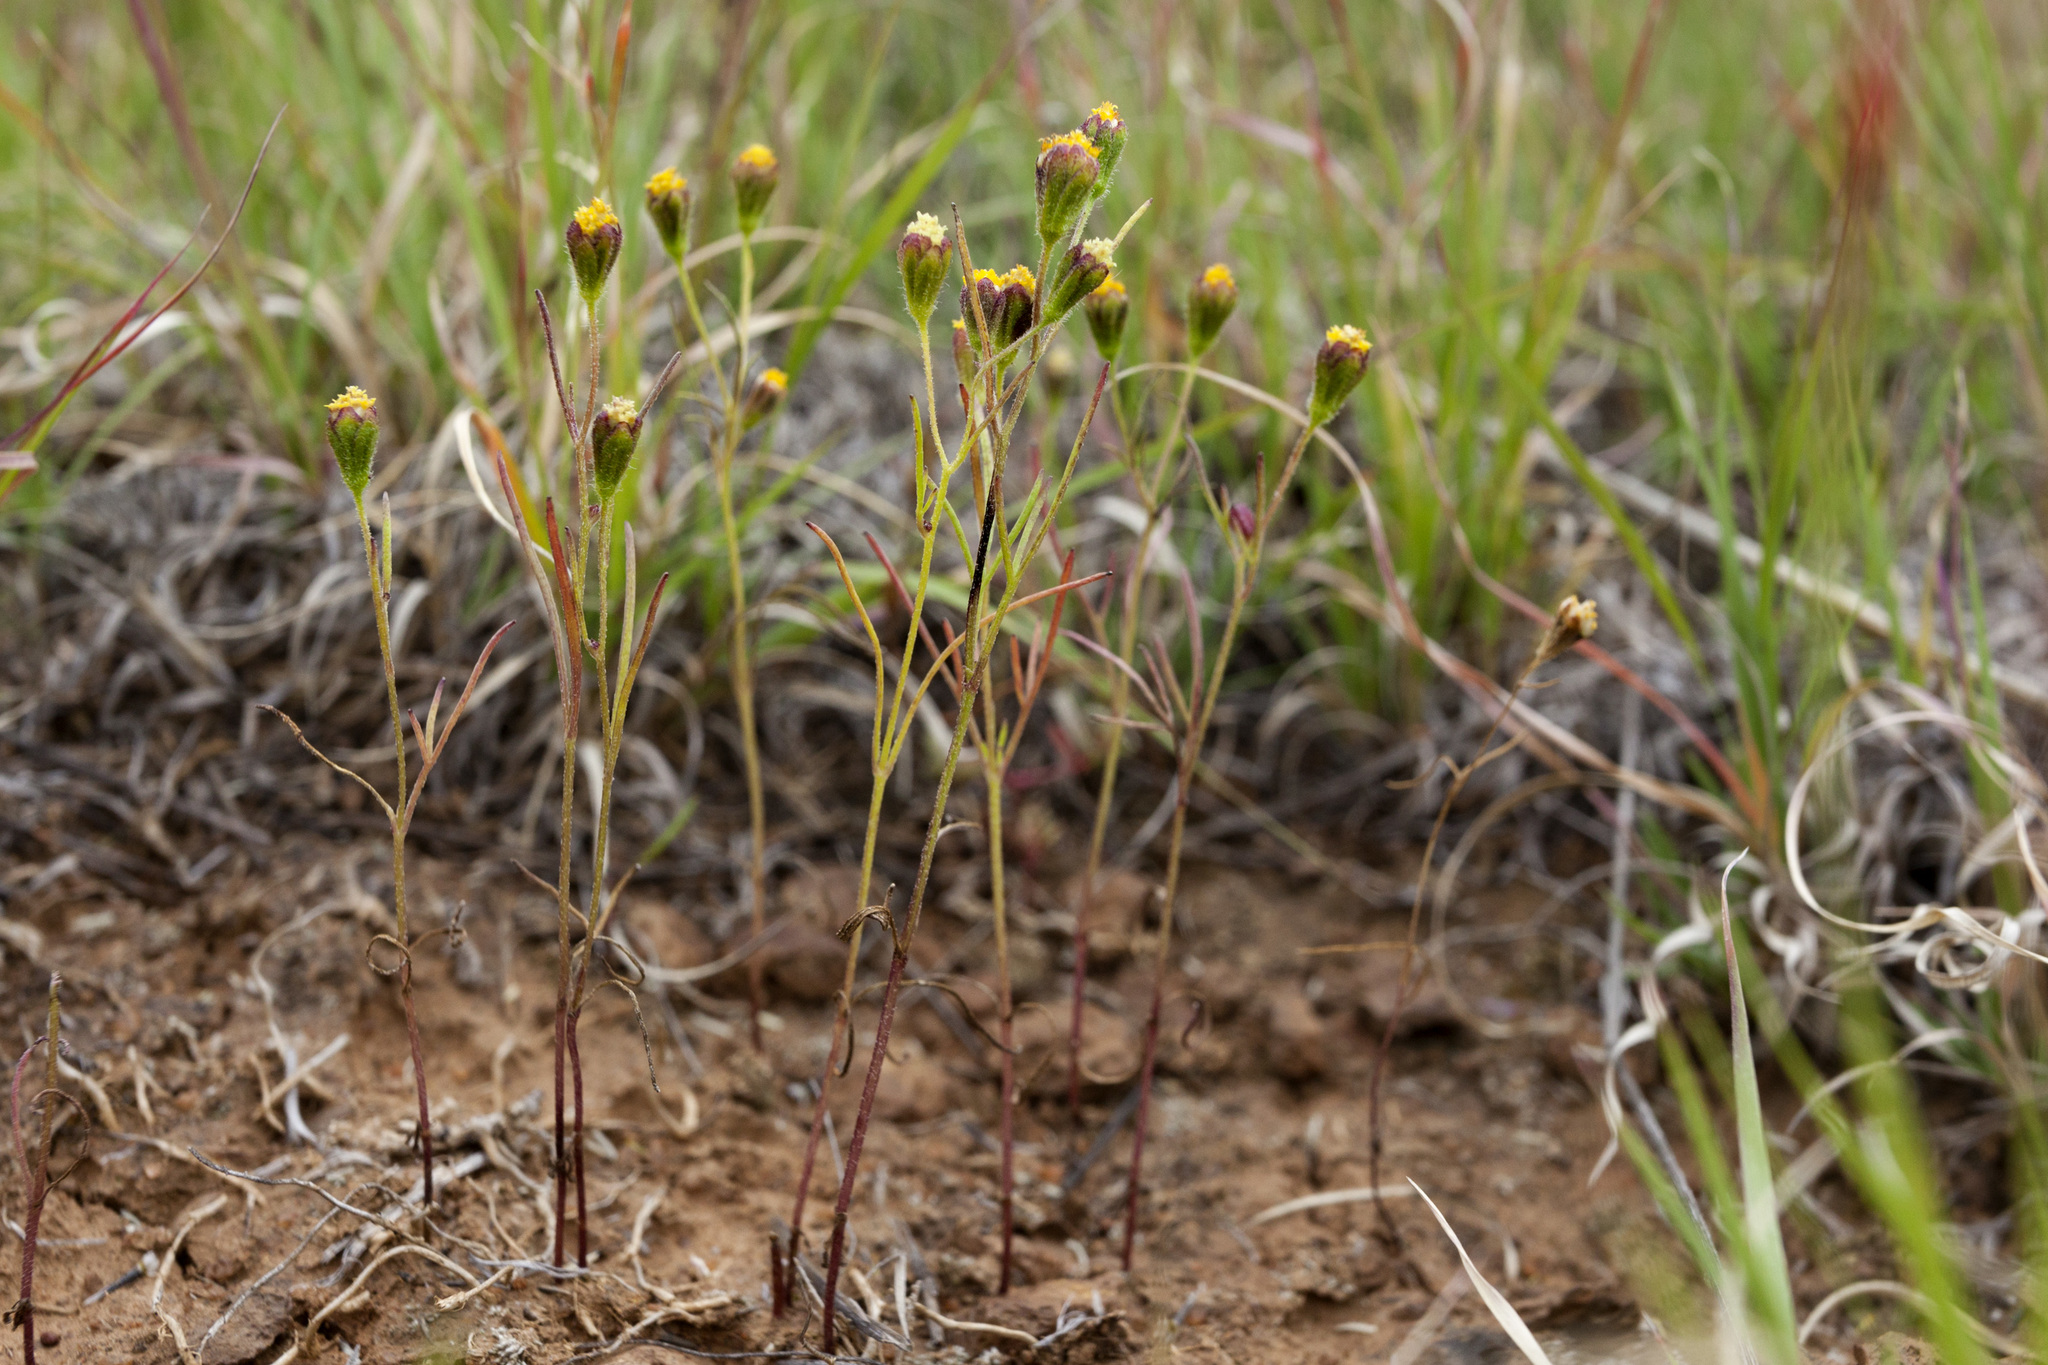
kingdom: Plantae
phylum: Tracheophyta
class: Magnoliopsida
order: Asterales
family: Asteraceae
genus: Picradeniopsis
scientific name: Picradeniopsis multiflora
